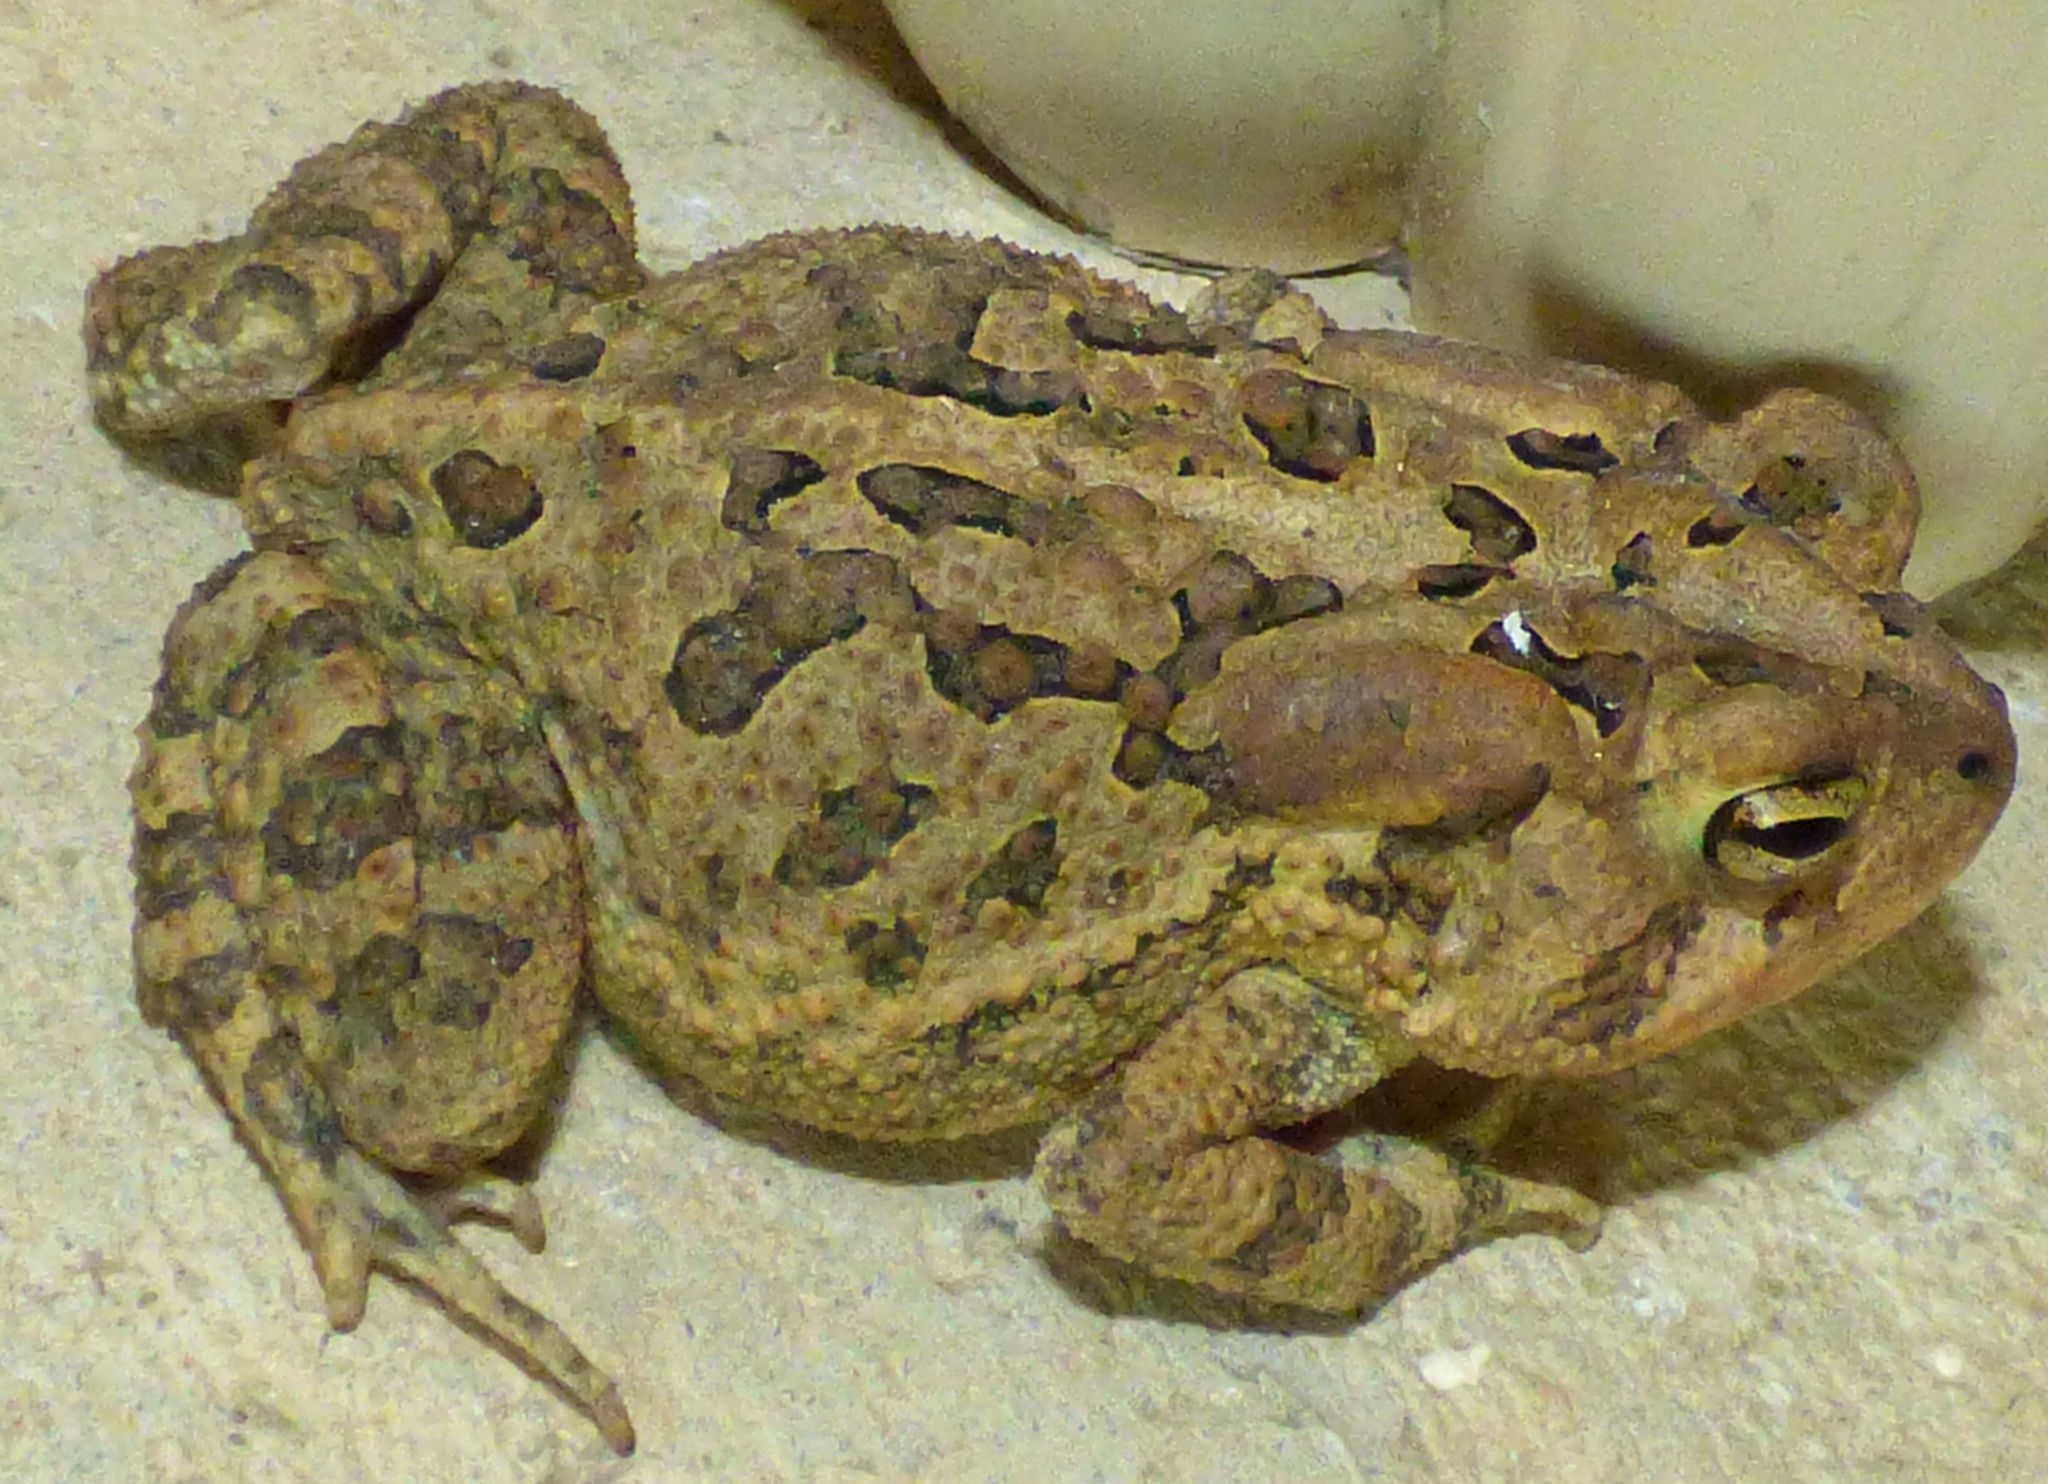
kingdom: Animalia
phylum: Chordata
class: Amphibia
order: Anura
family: Bufonidae
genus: Anaxyrus
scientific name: Anaxyrus terrestris
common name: Southern toad
